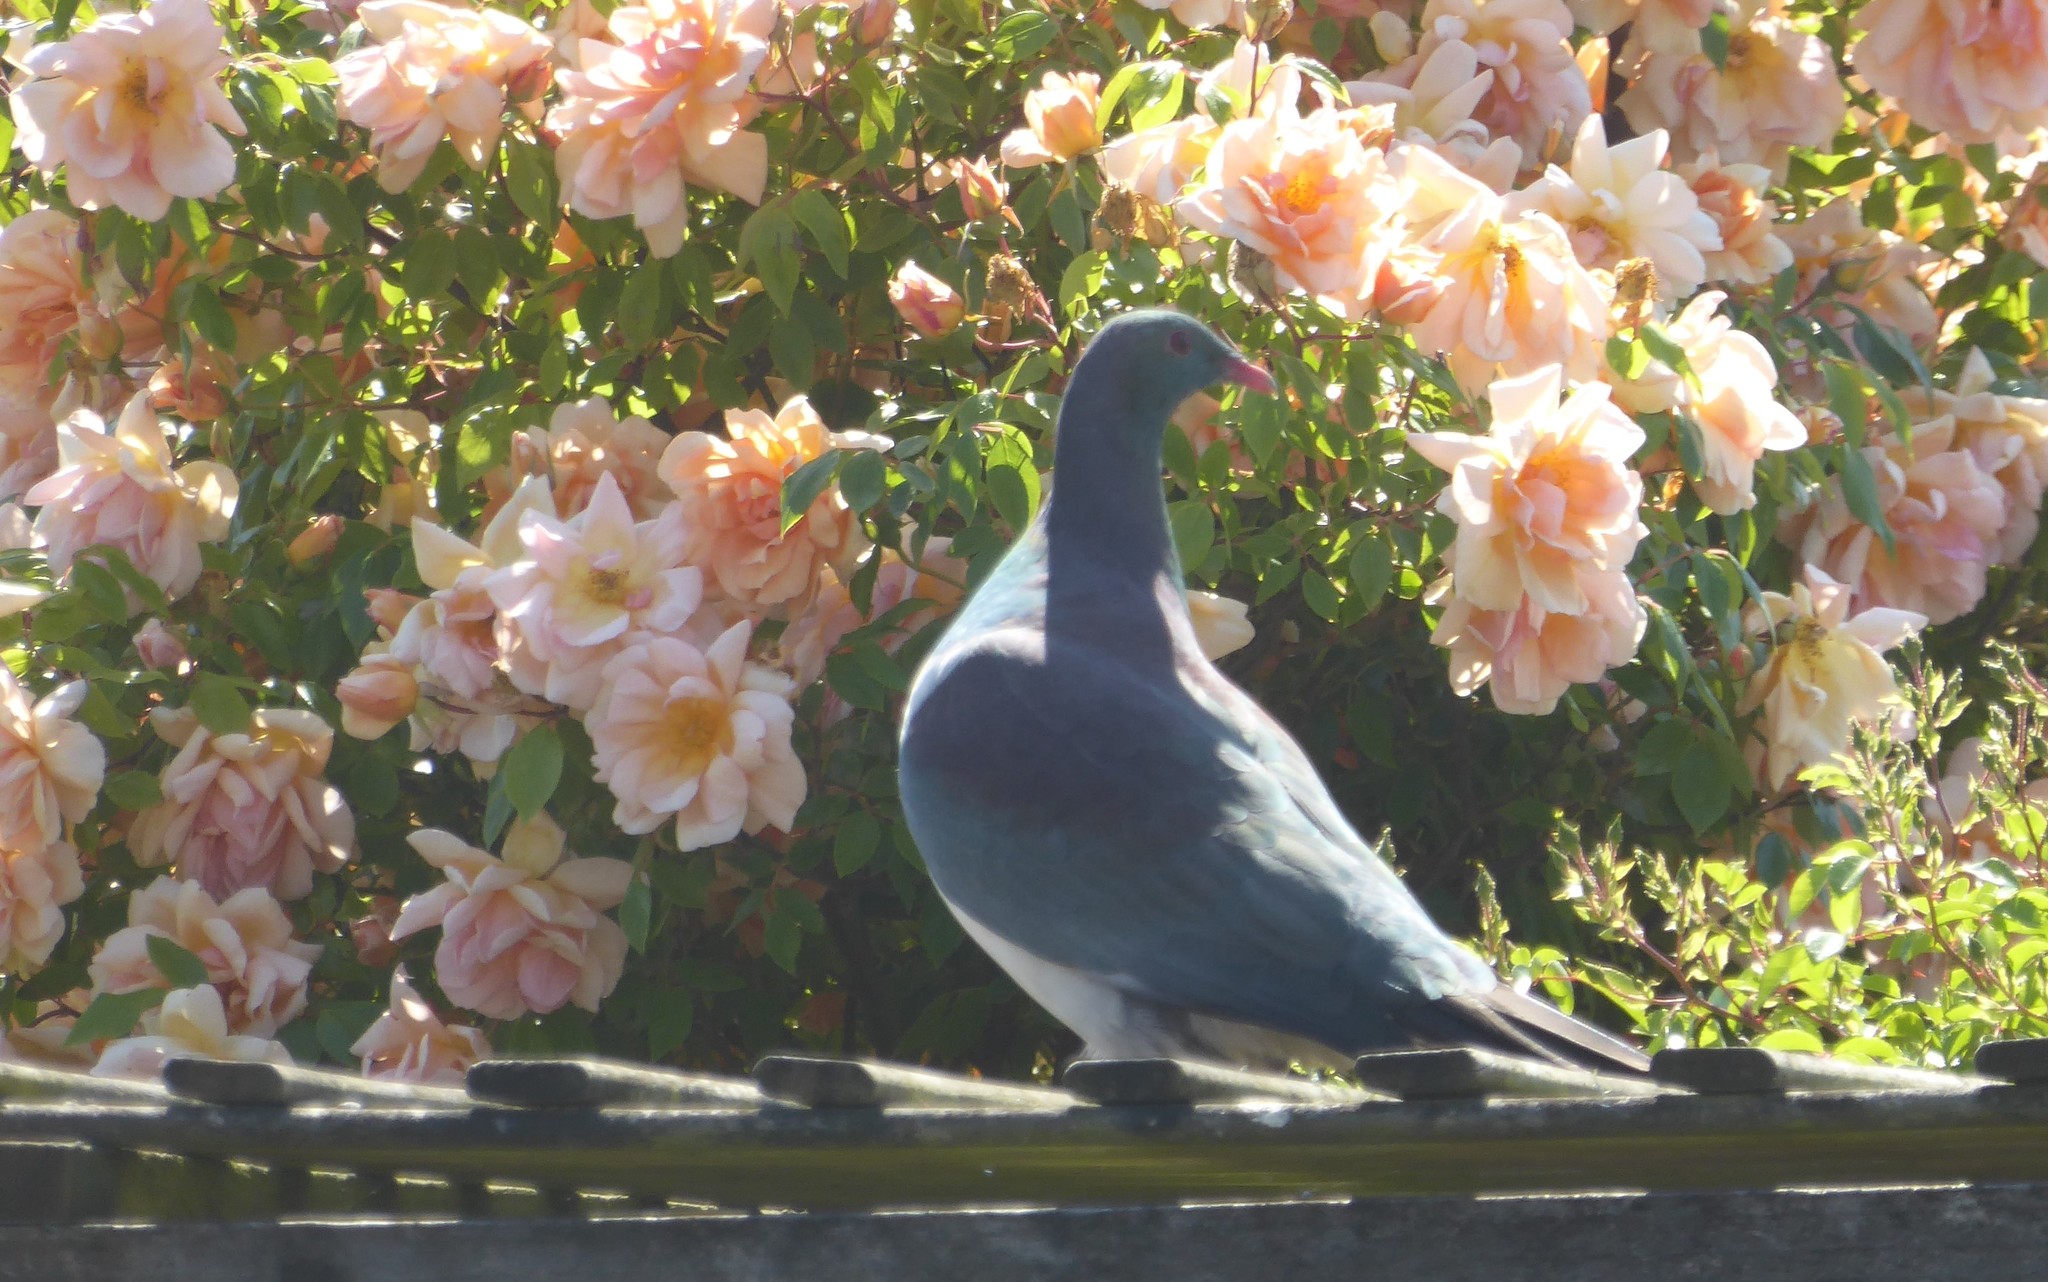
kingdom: Animalia
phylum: Chordata
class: Aves
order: Columbiformes
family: Columbidae
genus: Hemiphaga
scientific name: Hemiphaga novaeseelandiae
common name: New zealand pigeon
